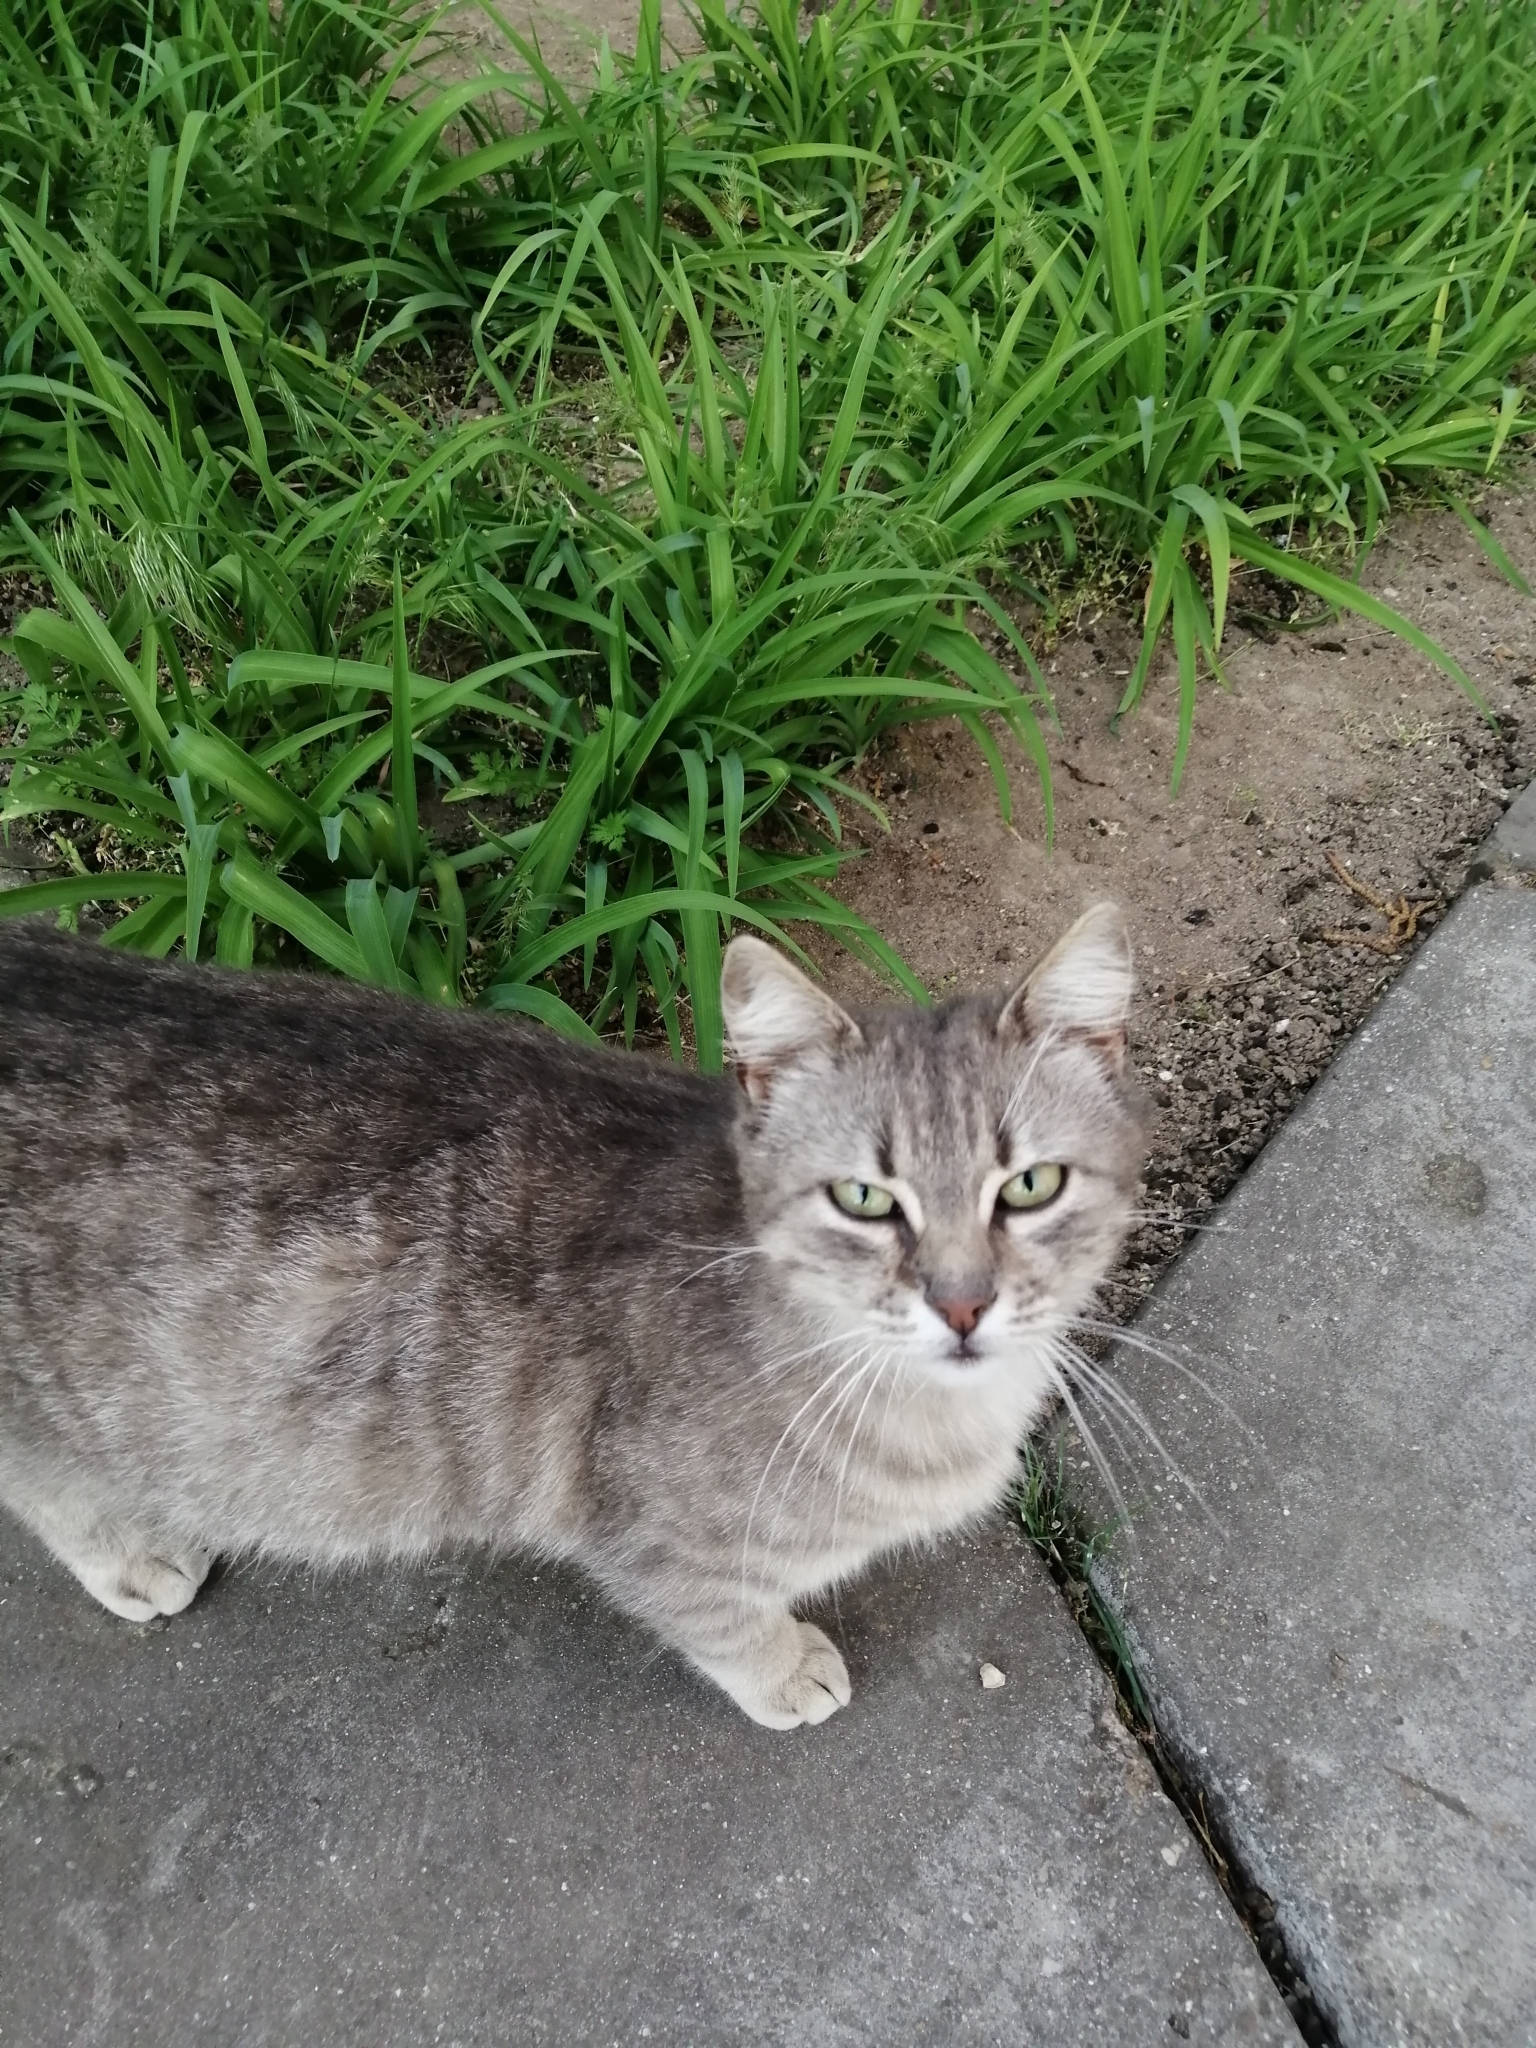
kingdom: Animalia
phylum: Chordata
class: Mammalia
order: Carnivora
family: Felidae
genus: Felis
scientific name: Felis catus
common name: Domestic cat
